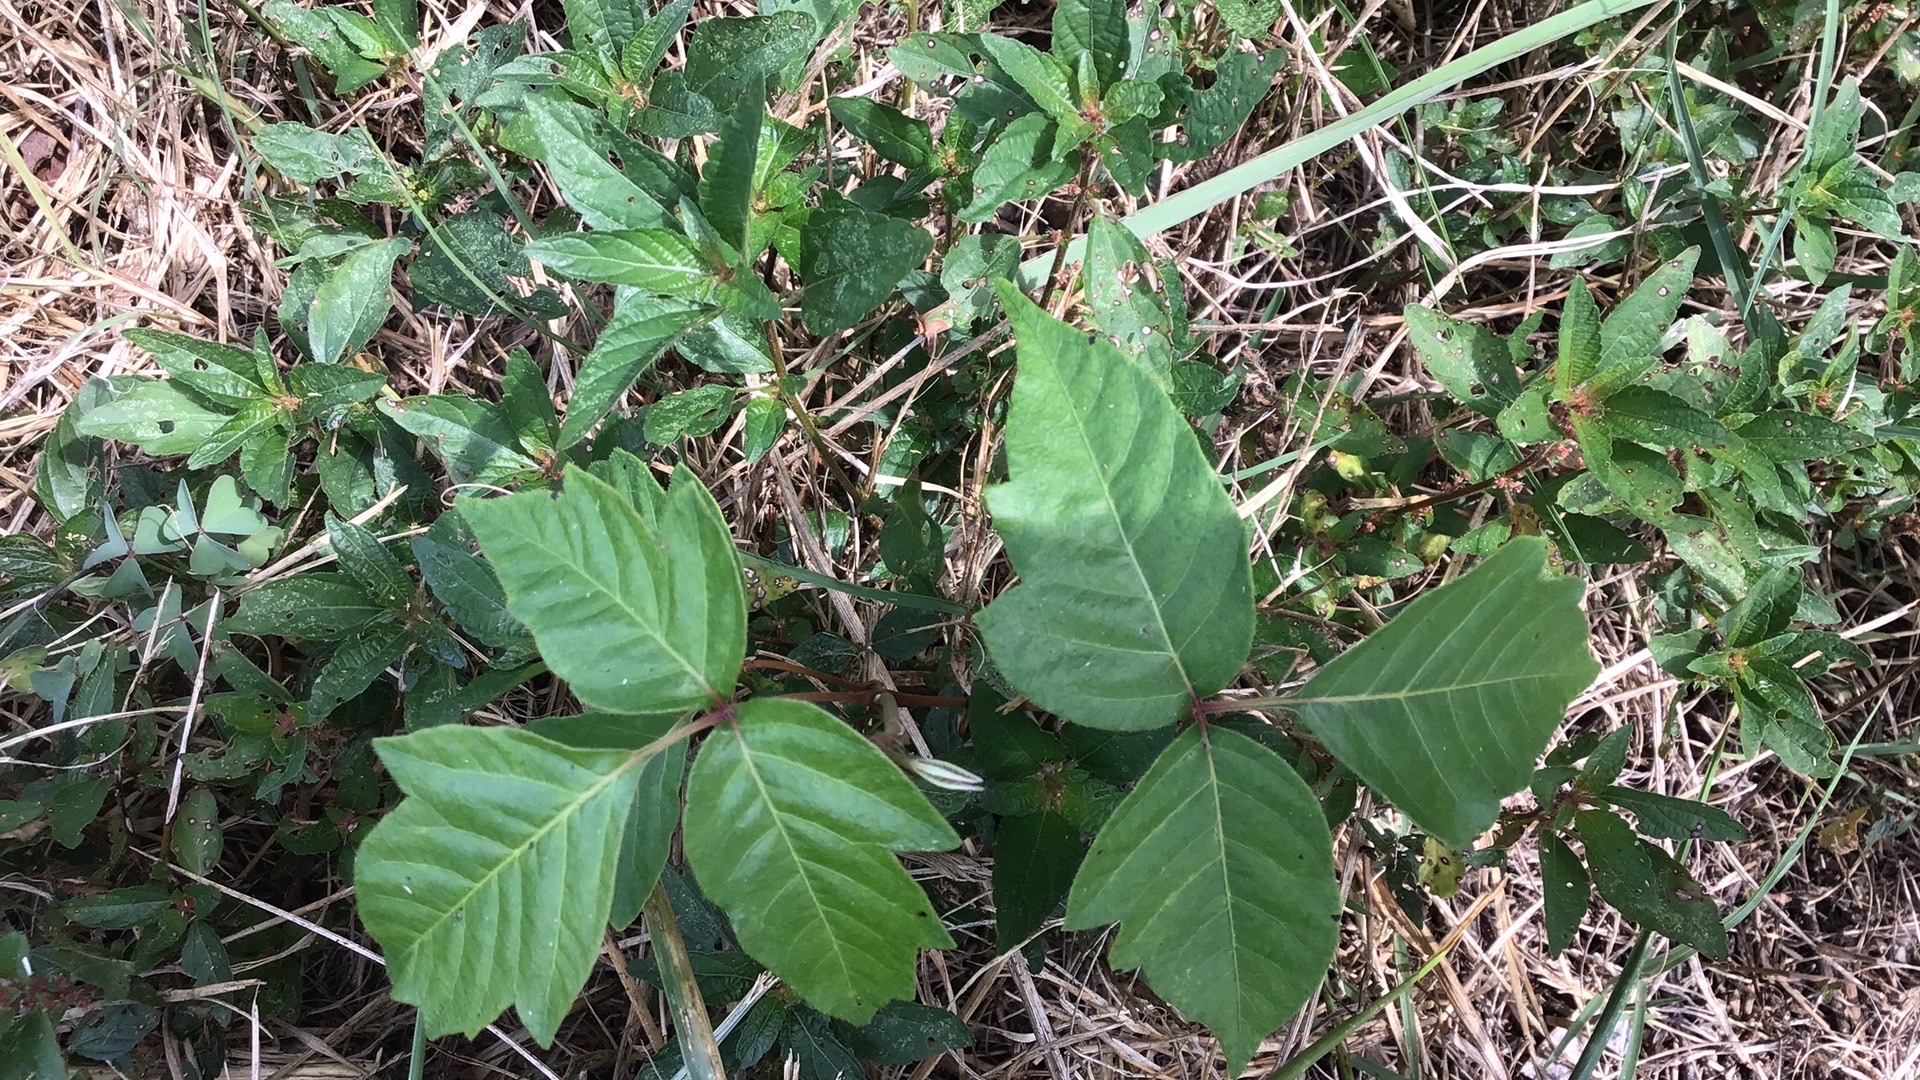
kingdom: Plantae
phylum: Tracheophyta
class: Magnoliopsida
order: Sapindales
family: Anacardiaceae
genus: Toxicodendron
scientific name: Toxicodendron radicans
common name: Poison ivy
